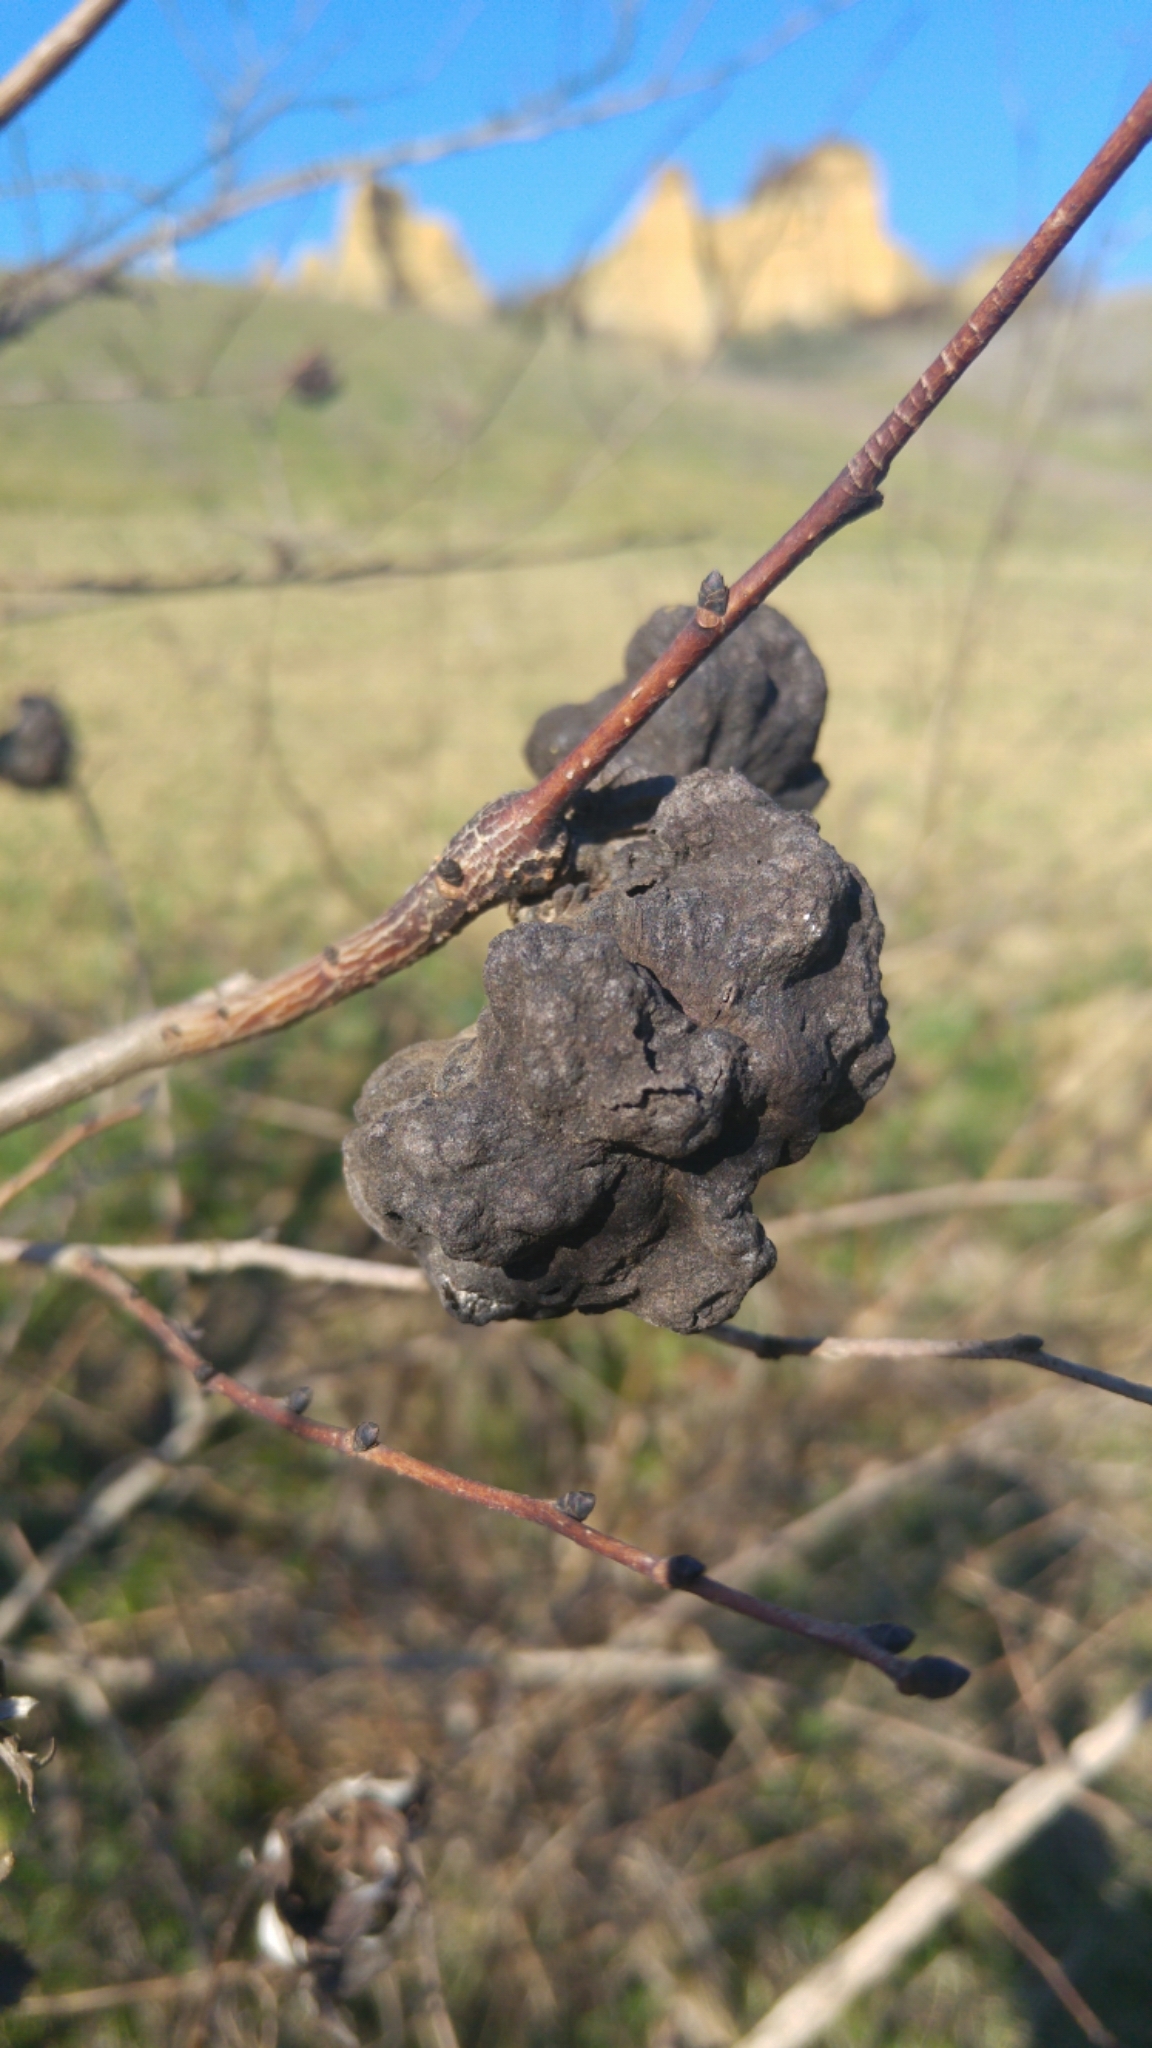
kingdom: Animalia
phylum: Arthropoda
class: Insecta
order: Hemiptera
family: Aphididae
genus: Eriosoma
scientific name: Eriosoma lanuginosum
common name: Aphid
